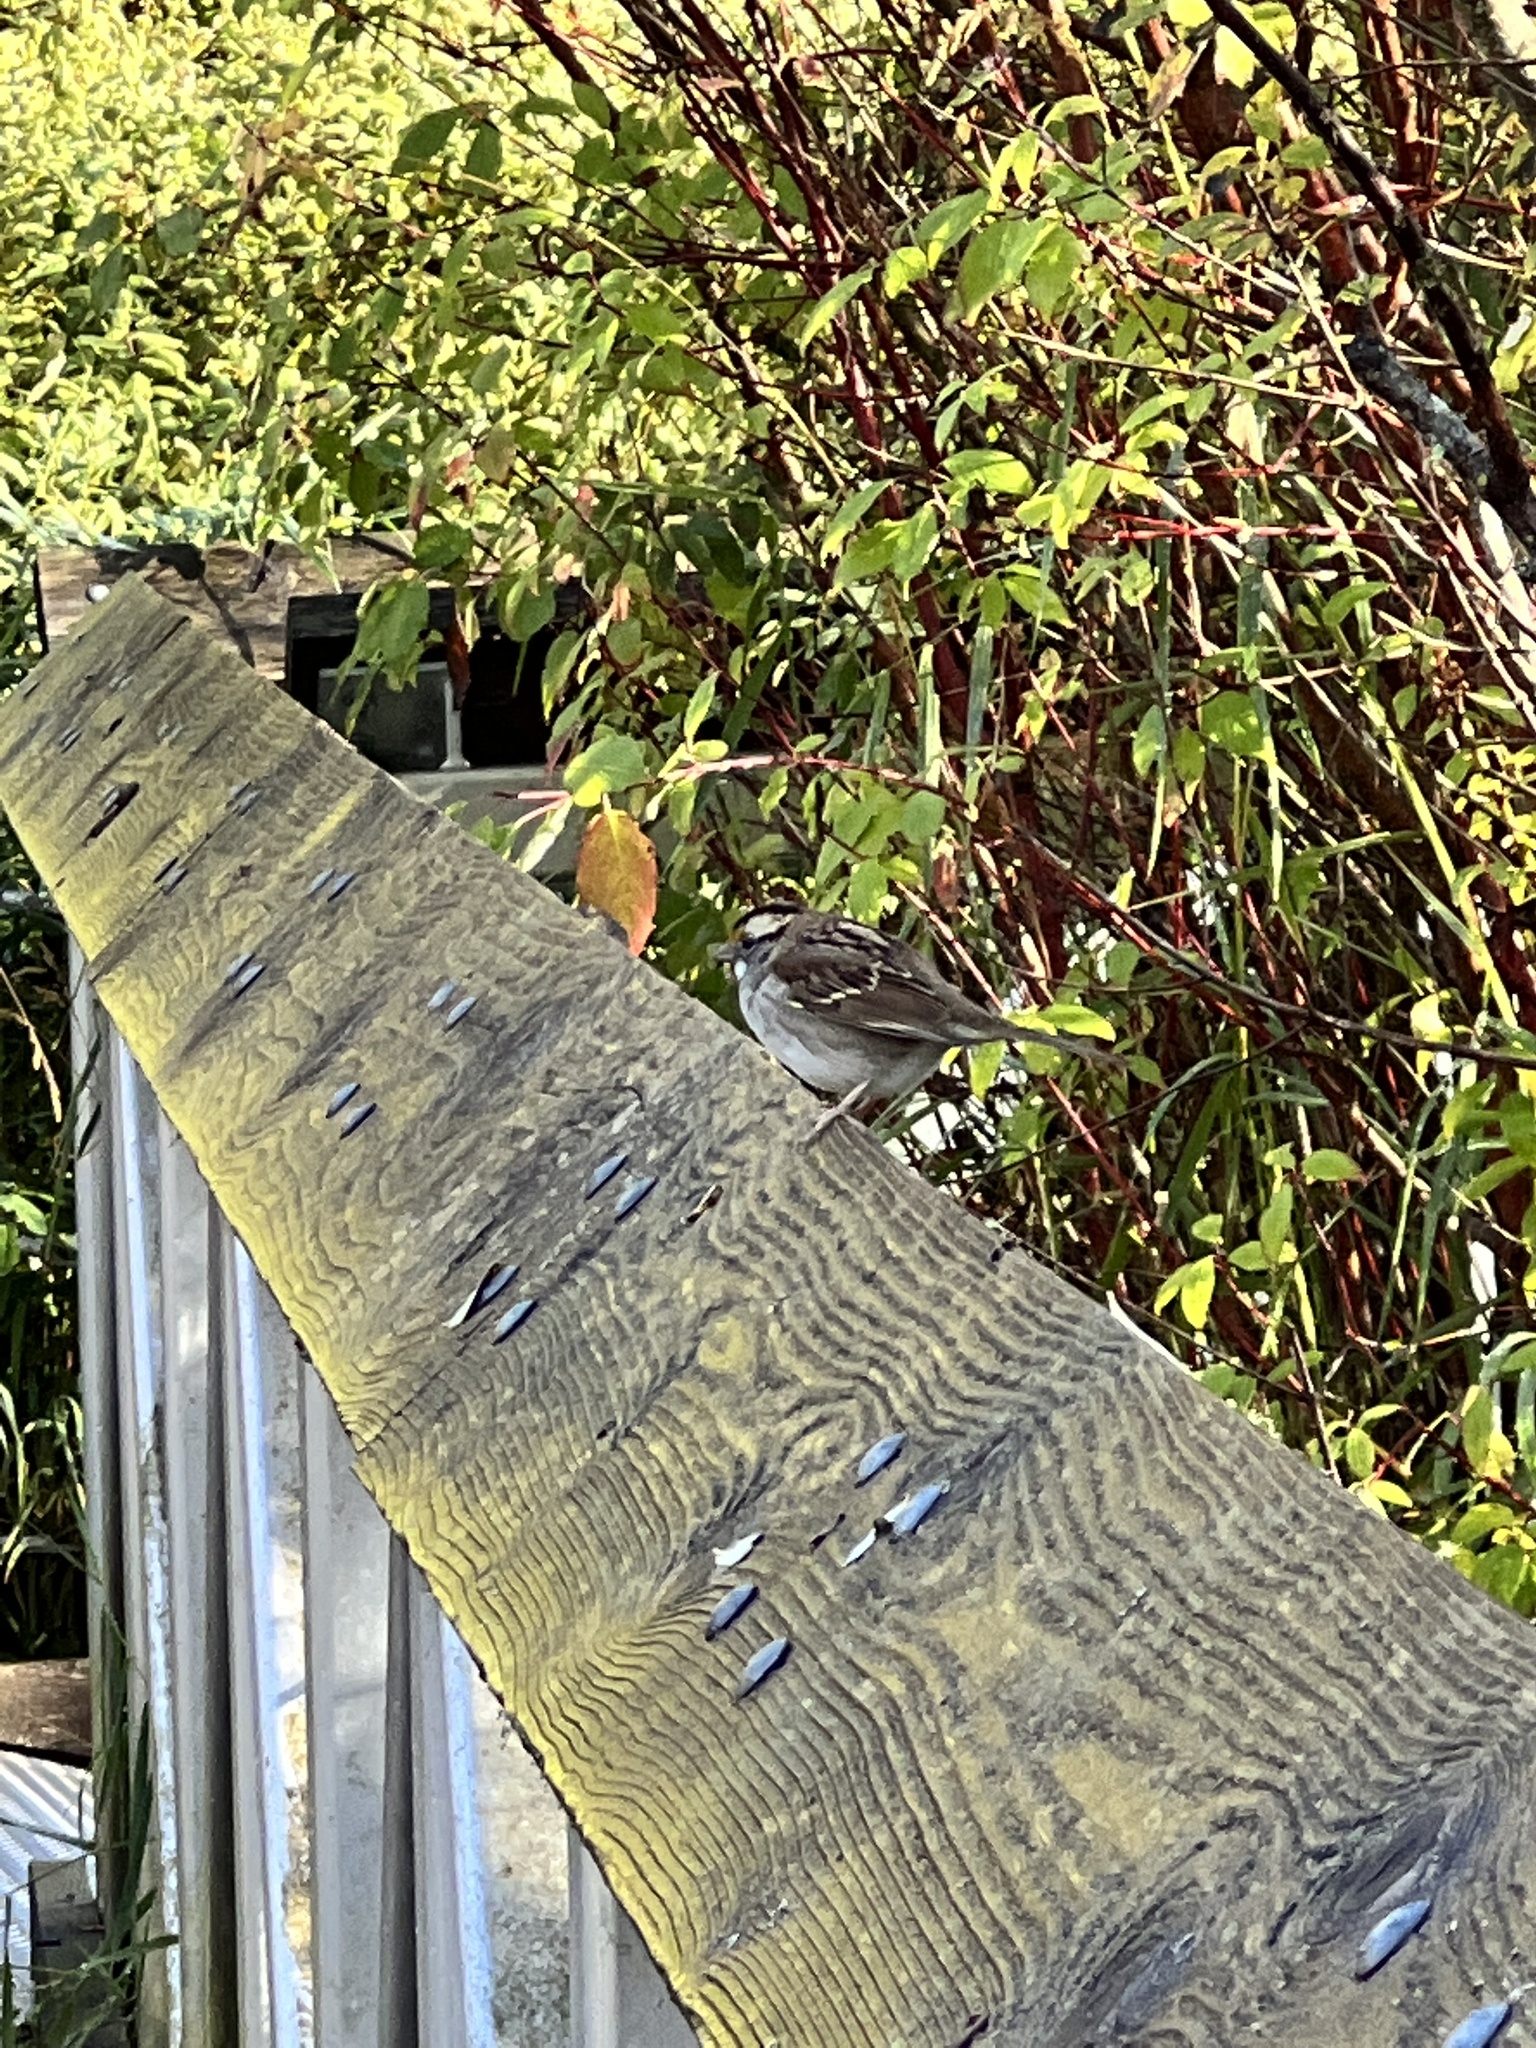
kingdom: Animalia
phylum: Chordata
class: Aves
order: Passeriformes
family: Passerellidae
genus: Zonotrichia
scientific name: Zonotrichia albicollis
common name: White-throated sparrow
